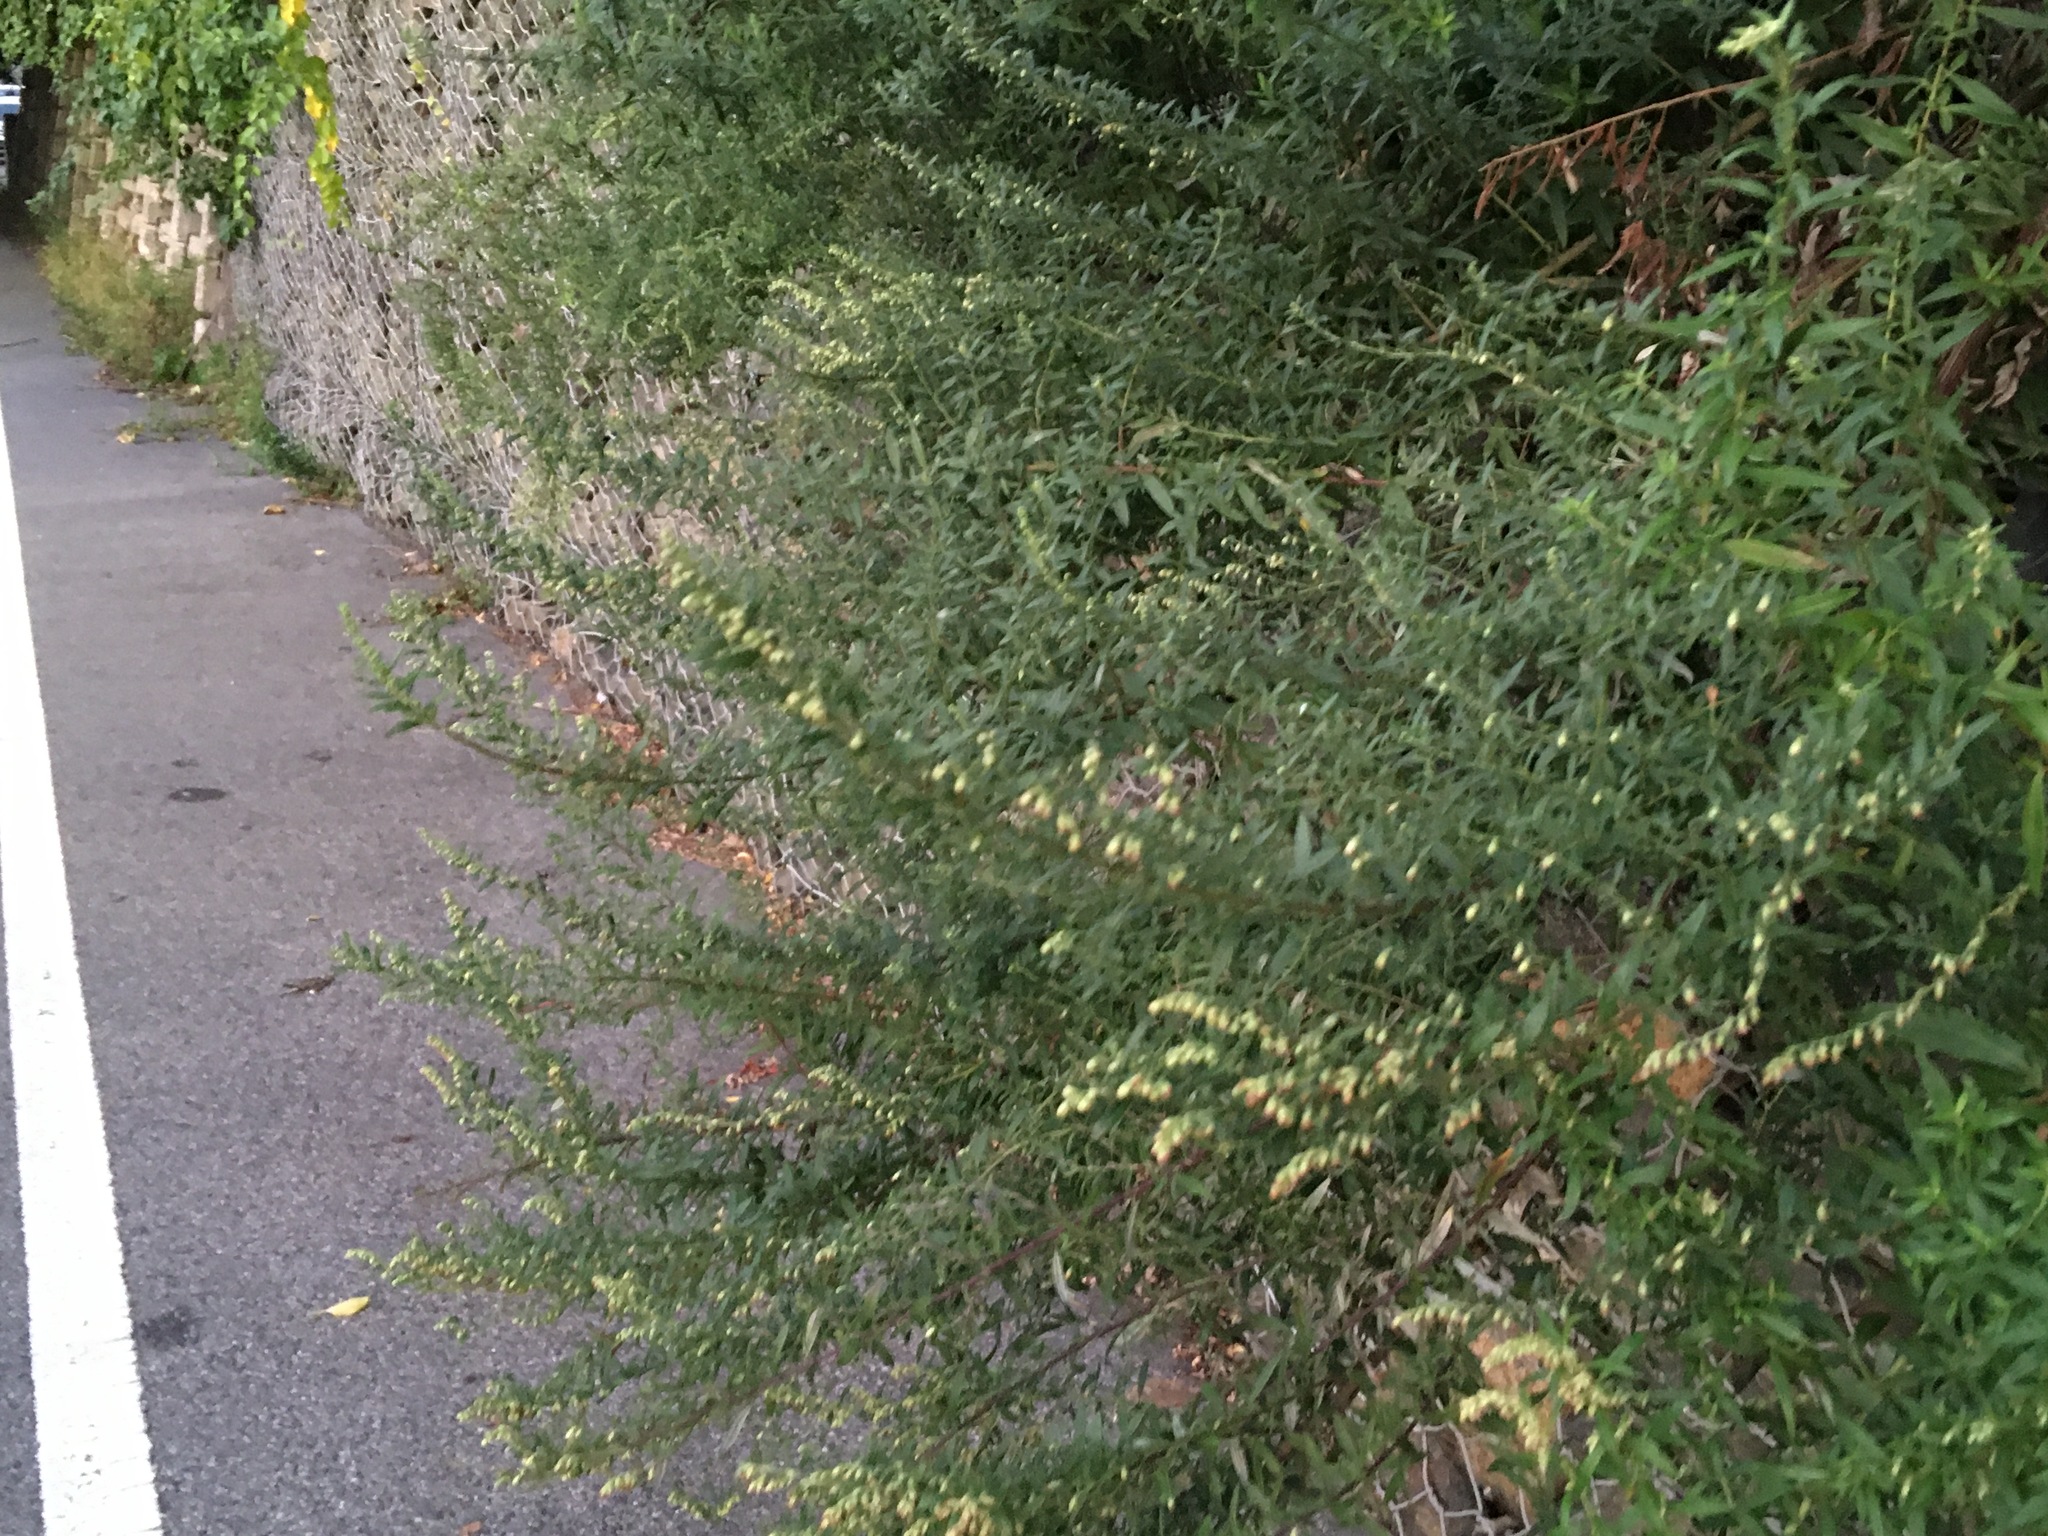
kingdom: Plantae
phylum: Tracheophyta
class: Magnoliopsida
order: Asterales
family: Asteraceae
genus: Artemisia
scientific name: Artemisia vulgaris
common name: Mugwort
